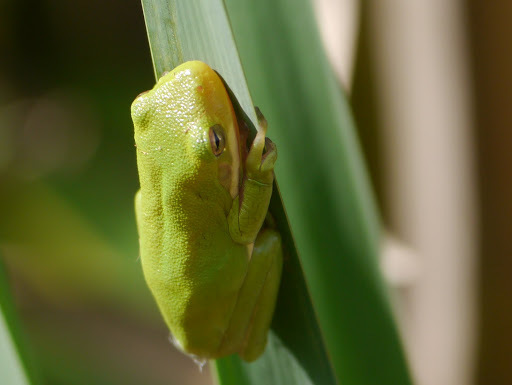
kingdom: Animalia
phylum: Chordata
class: Amphibia
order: Anura
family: Hylidae
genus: Dryophytes
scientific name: Dryophytes cinereus
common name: Green treefrog
